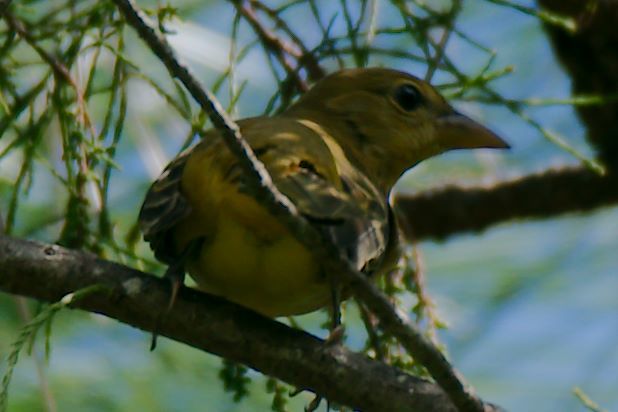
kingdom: Animalia
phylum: Chordata
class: Aves
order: Passeriformes
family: Cardinalidae
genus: Piranga
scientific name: Piranga rubra
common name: Summer tanager
